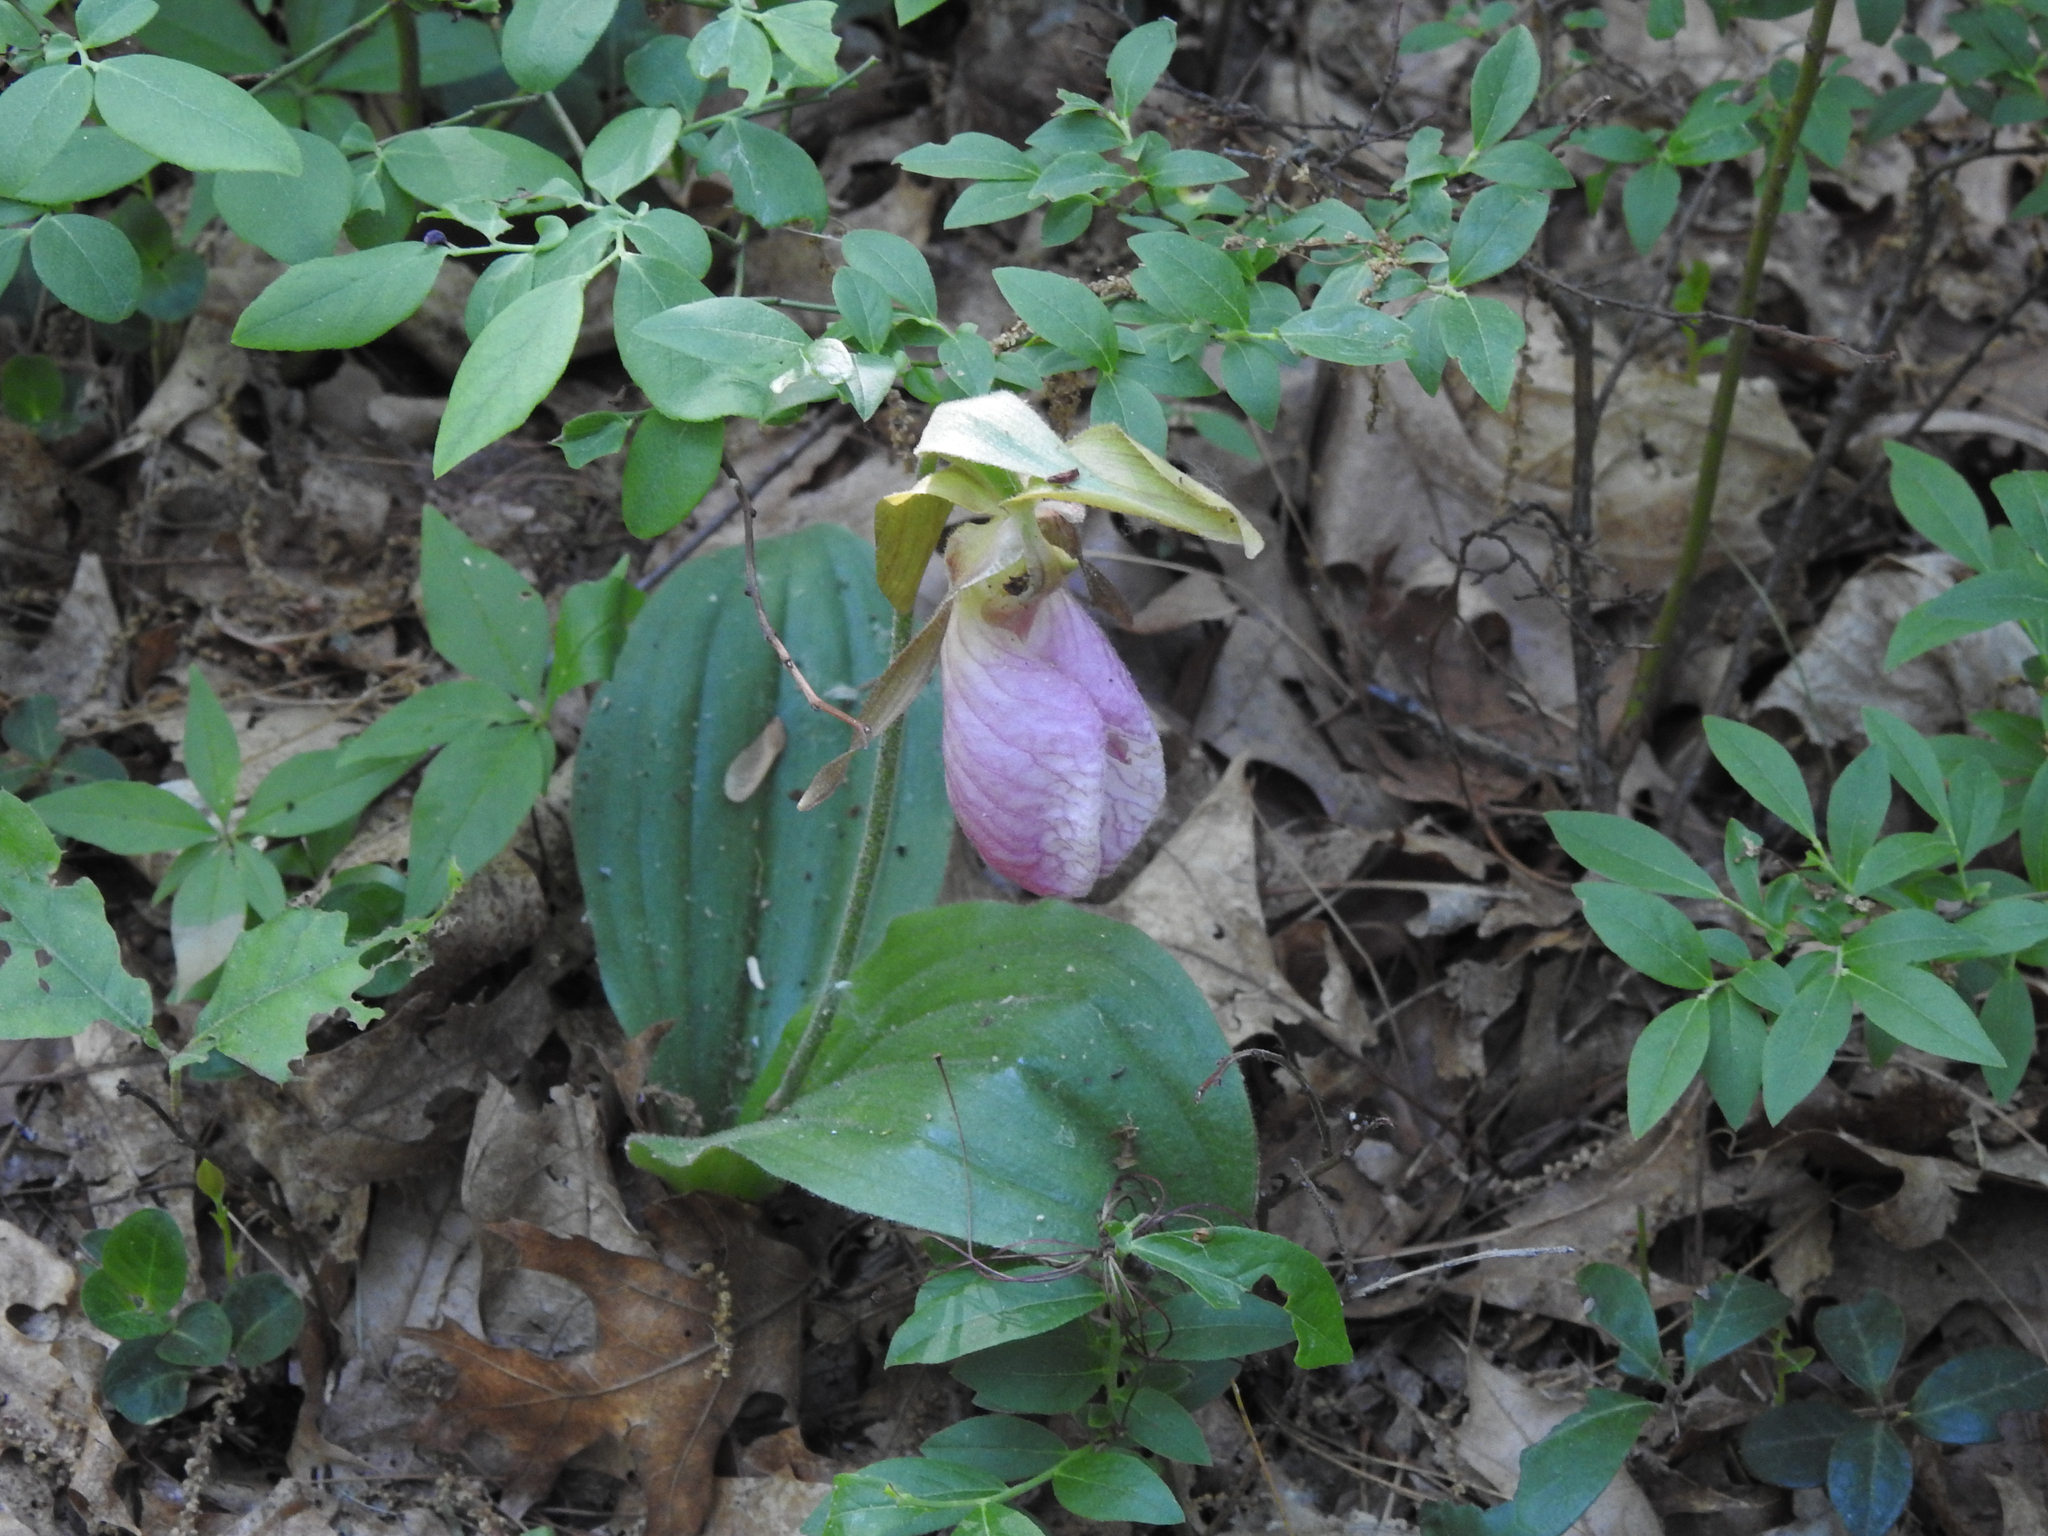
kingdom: Plantae
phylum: Tracheophyta
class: Liliopsida
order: Asparagales
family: Orchidaceae
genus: Cypripedium
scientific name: Cypripedium acaule
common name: Pink lady's-slipper
